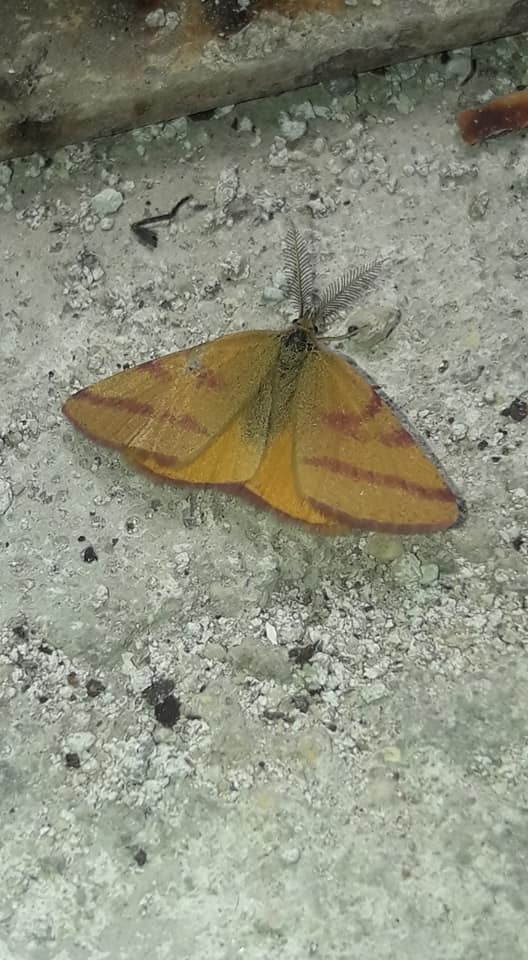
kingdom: Animalia
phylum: Arthropoda
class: Insecta
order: Lepidoptera
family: Geometridae
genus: Lythria
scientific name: Lythria purpuraria
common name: Purple-barred yellow
